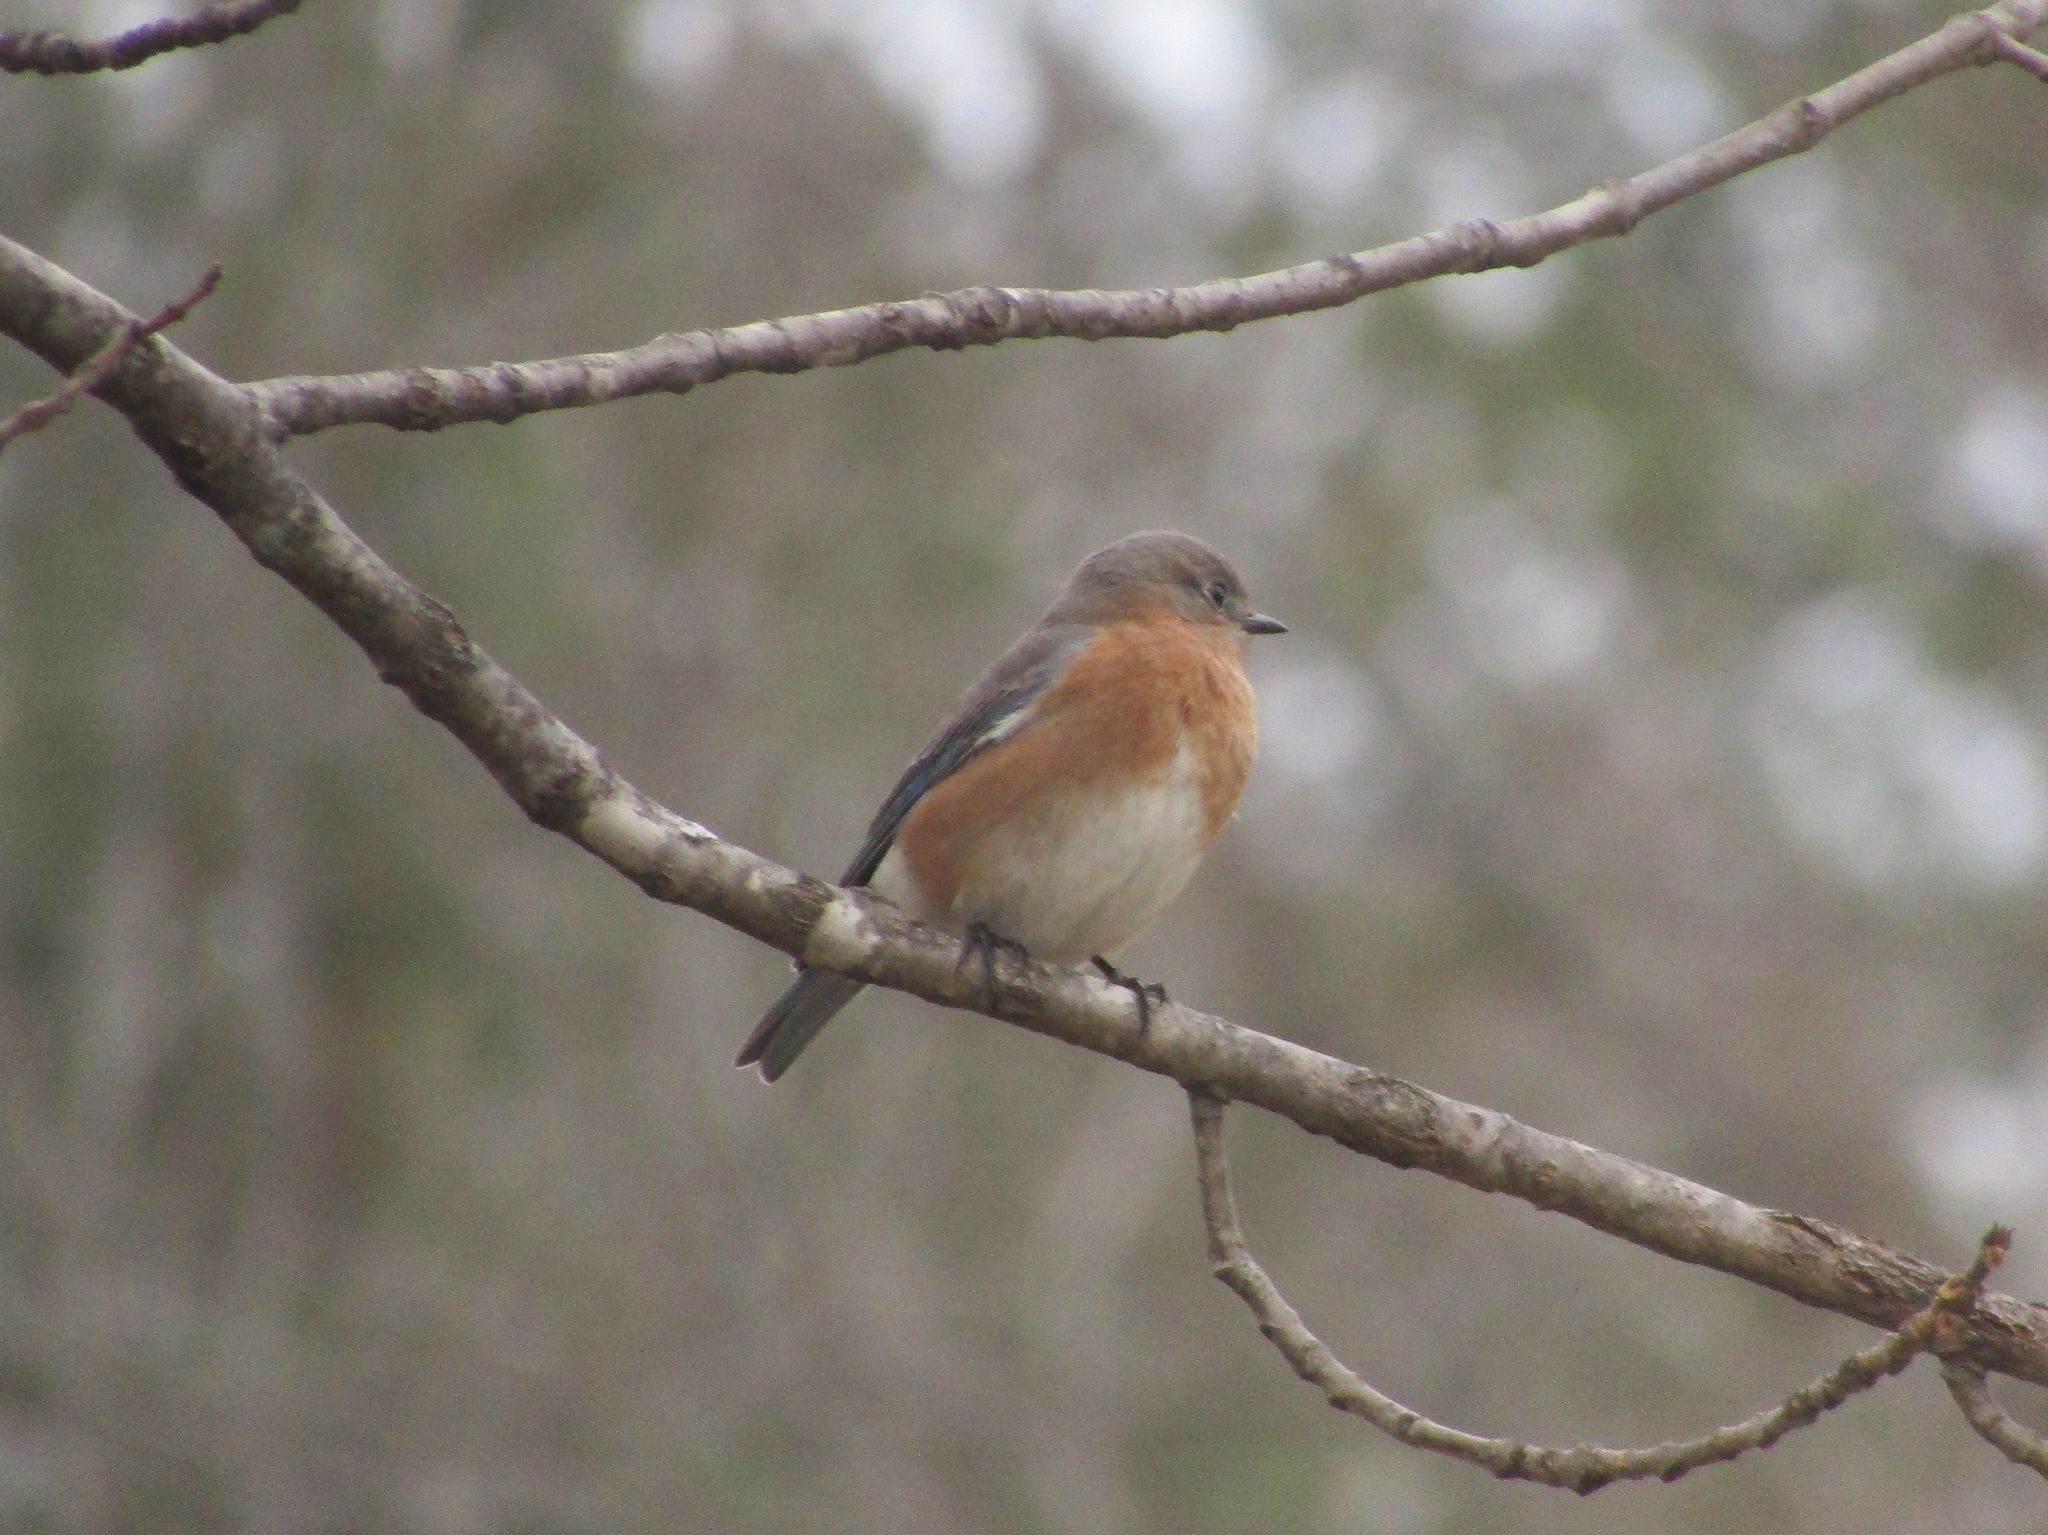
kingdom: Animalia
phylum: Chordata
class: Aves
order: Passeriformes
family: Turdidae
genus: Sialia
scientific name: Sialia sialis
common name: Eastern bluebird
